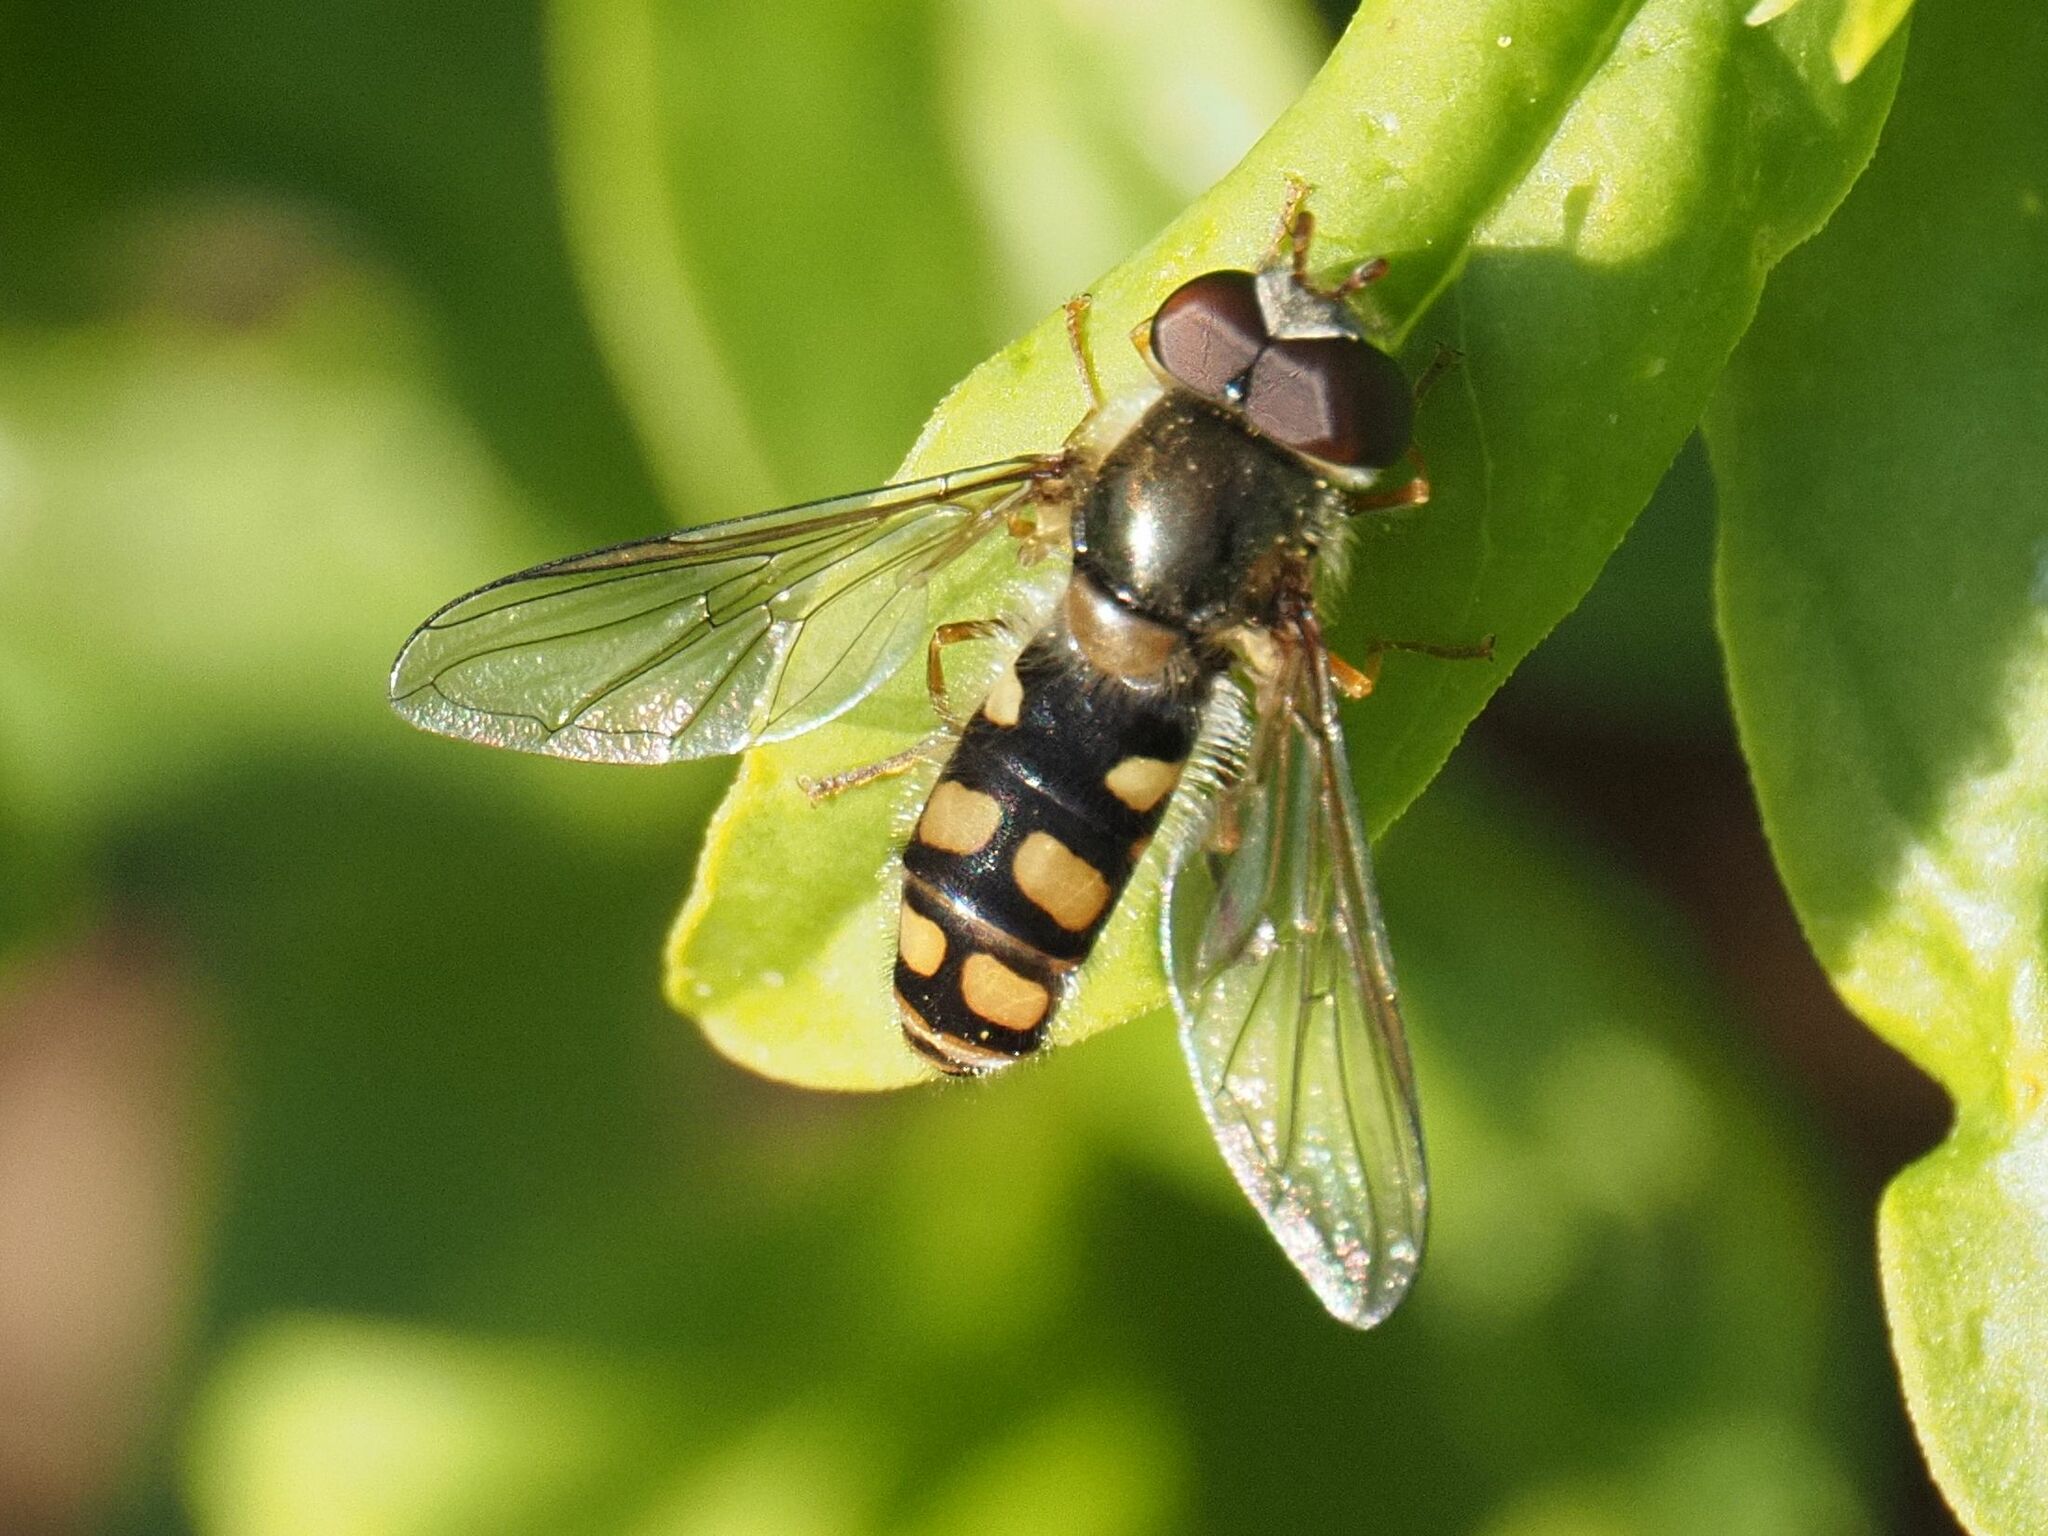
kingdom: Animalia
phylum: Arthropoda
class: Insecta
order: Diptera
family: Syrphidae
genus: Epistrophella
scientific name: Epistrophella euchromus
